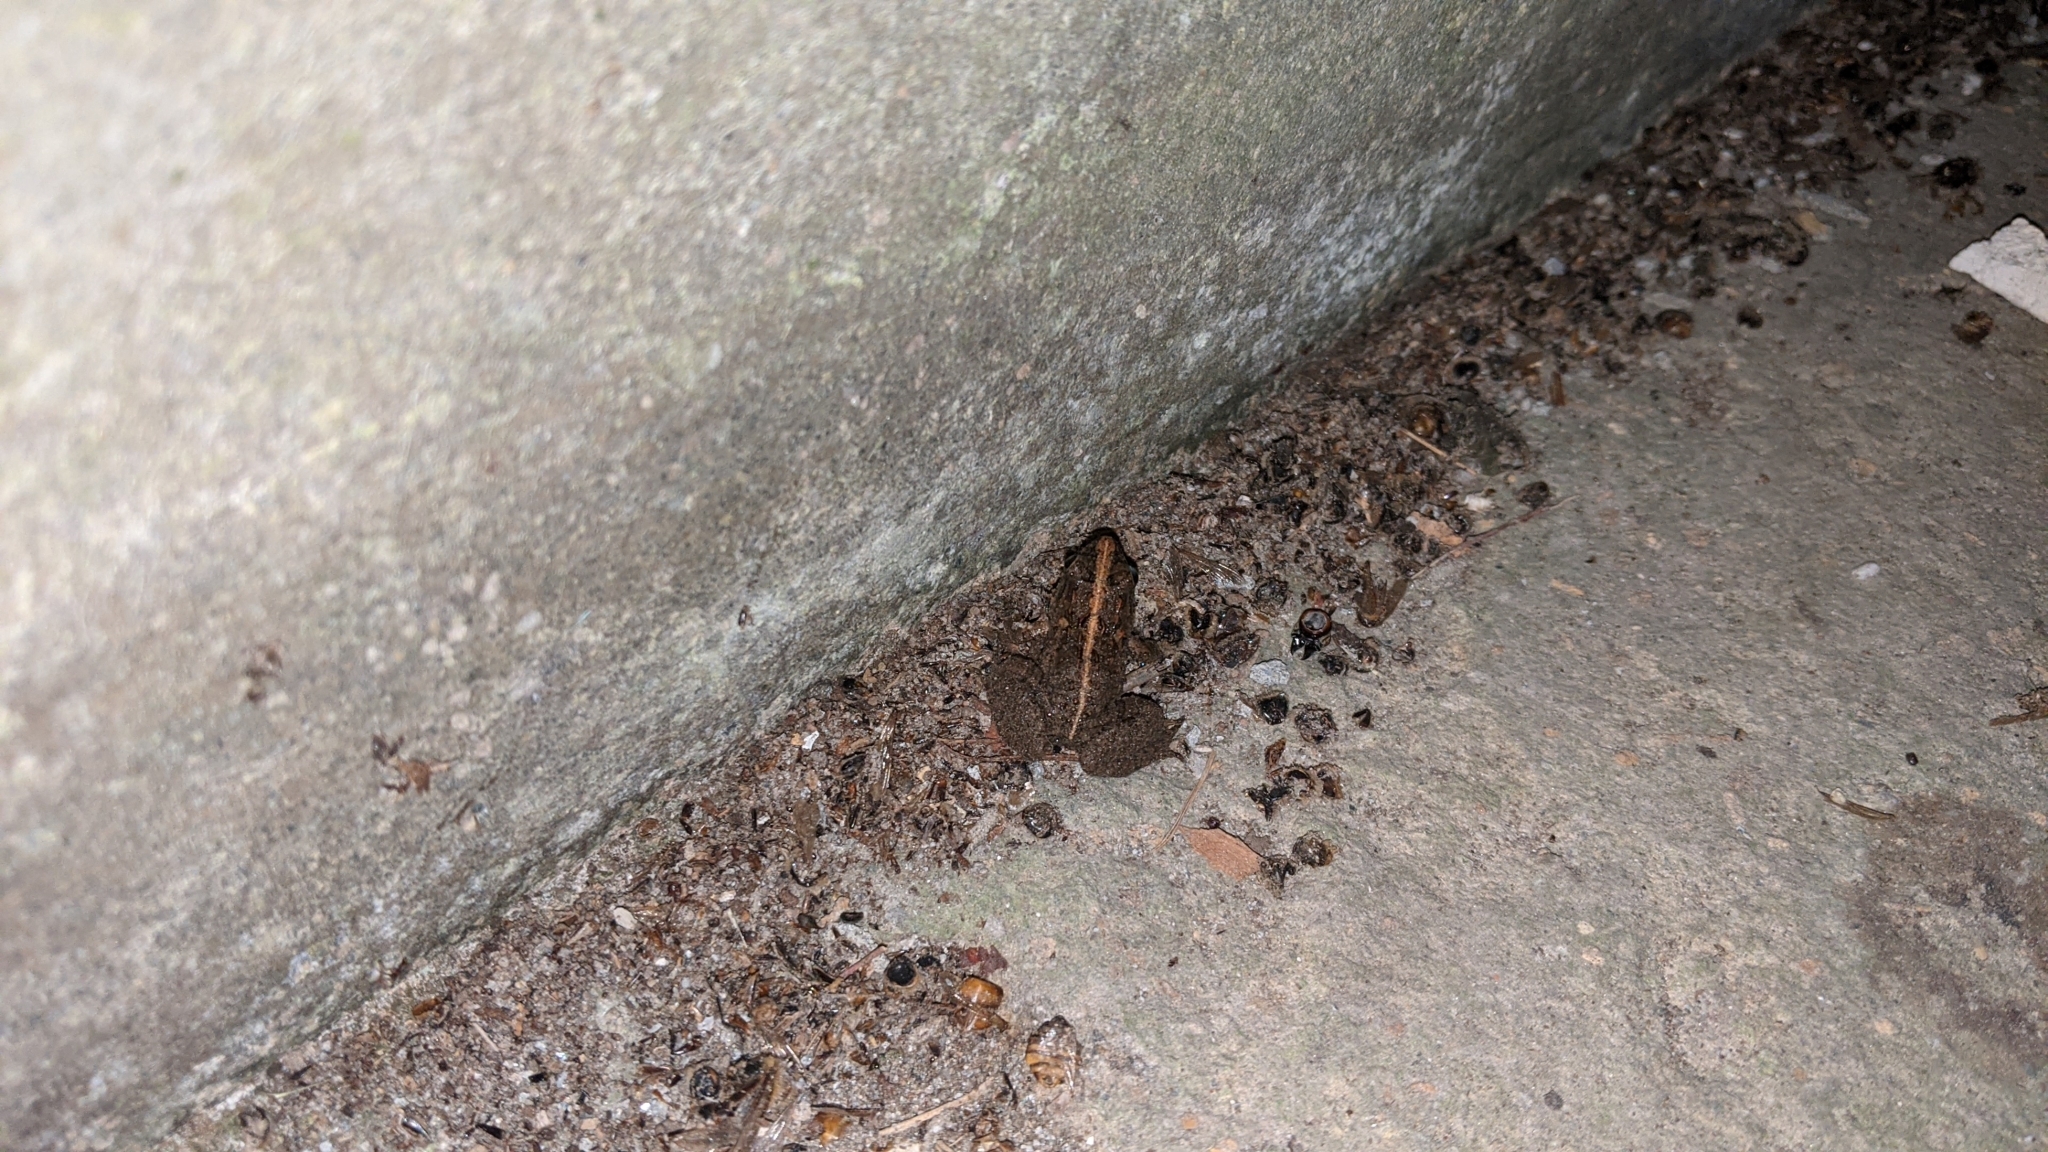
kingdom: Animalia
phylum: Chordata
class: Amphibia
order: Anura
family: Dicroglossidae
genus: Fejervarya
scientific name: Fejervarya limnocharis
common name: Asian grass frog/common pond frog/field frog/grass frog/indian rice frog
